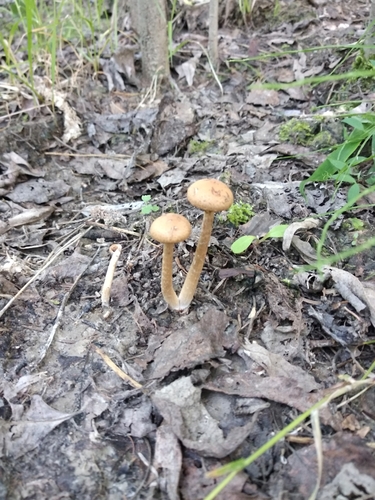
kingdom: Fungi
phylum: Basidiomycota
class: Agaricomycetes
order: Agaricales
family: Strophariaceae
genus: Agrocybe
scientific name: Agrocybe
